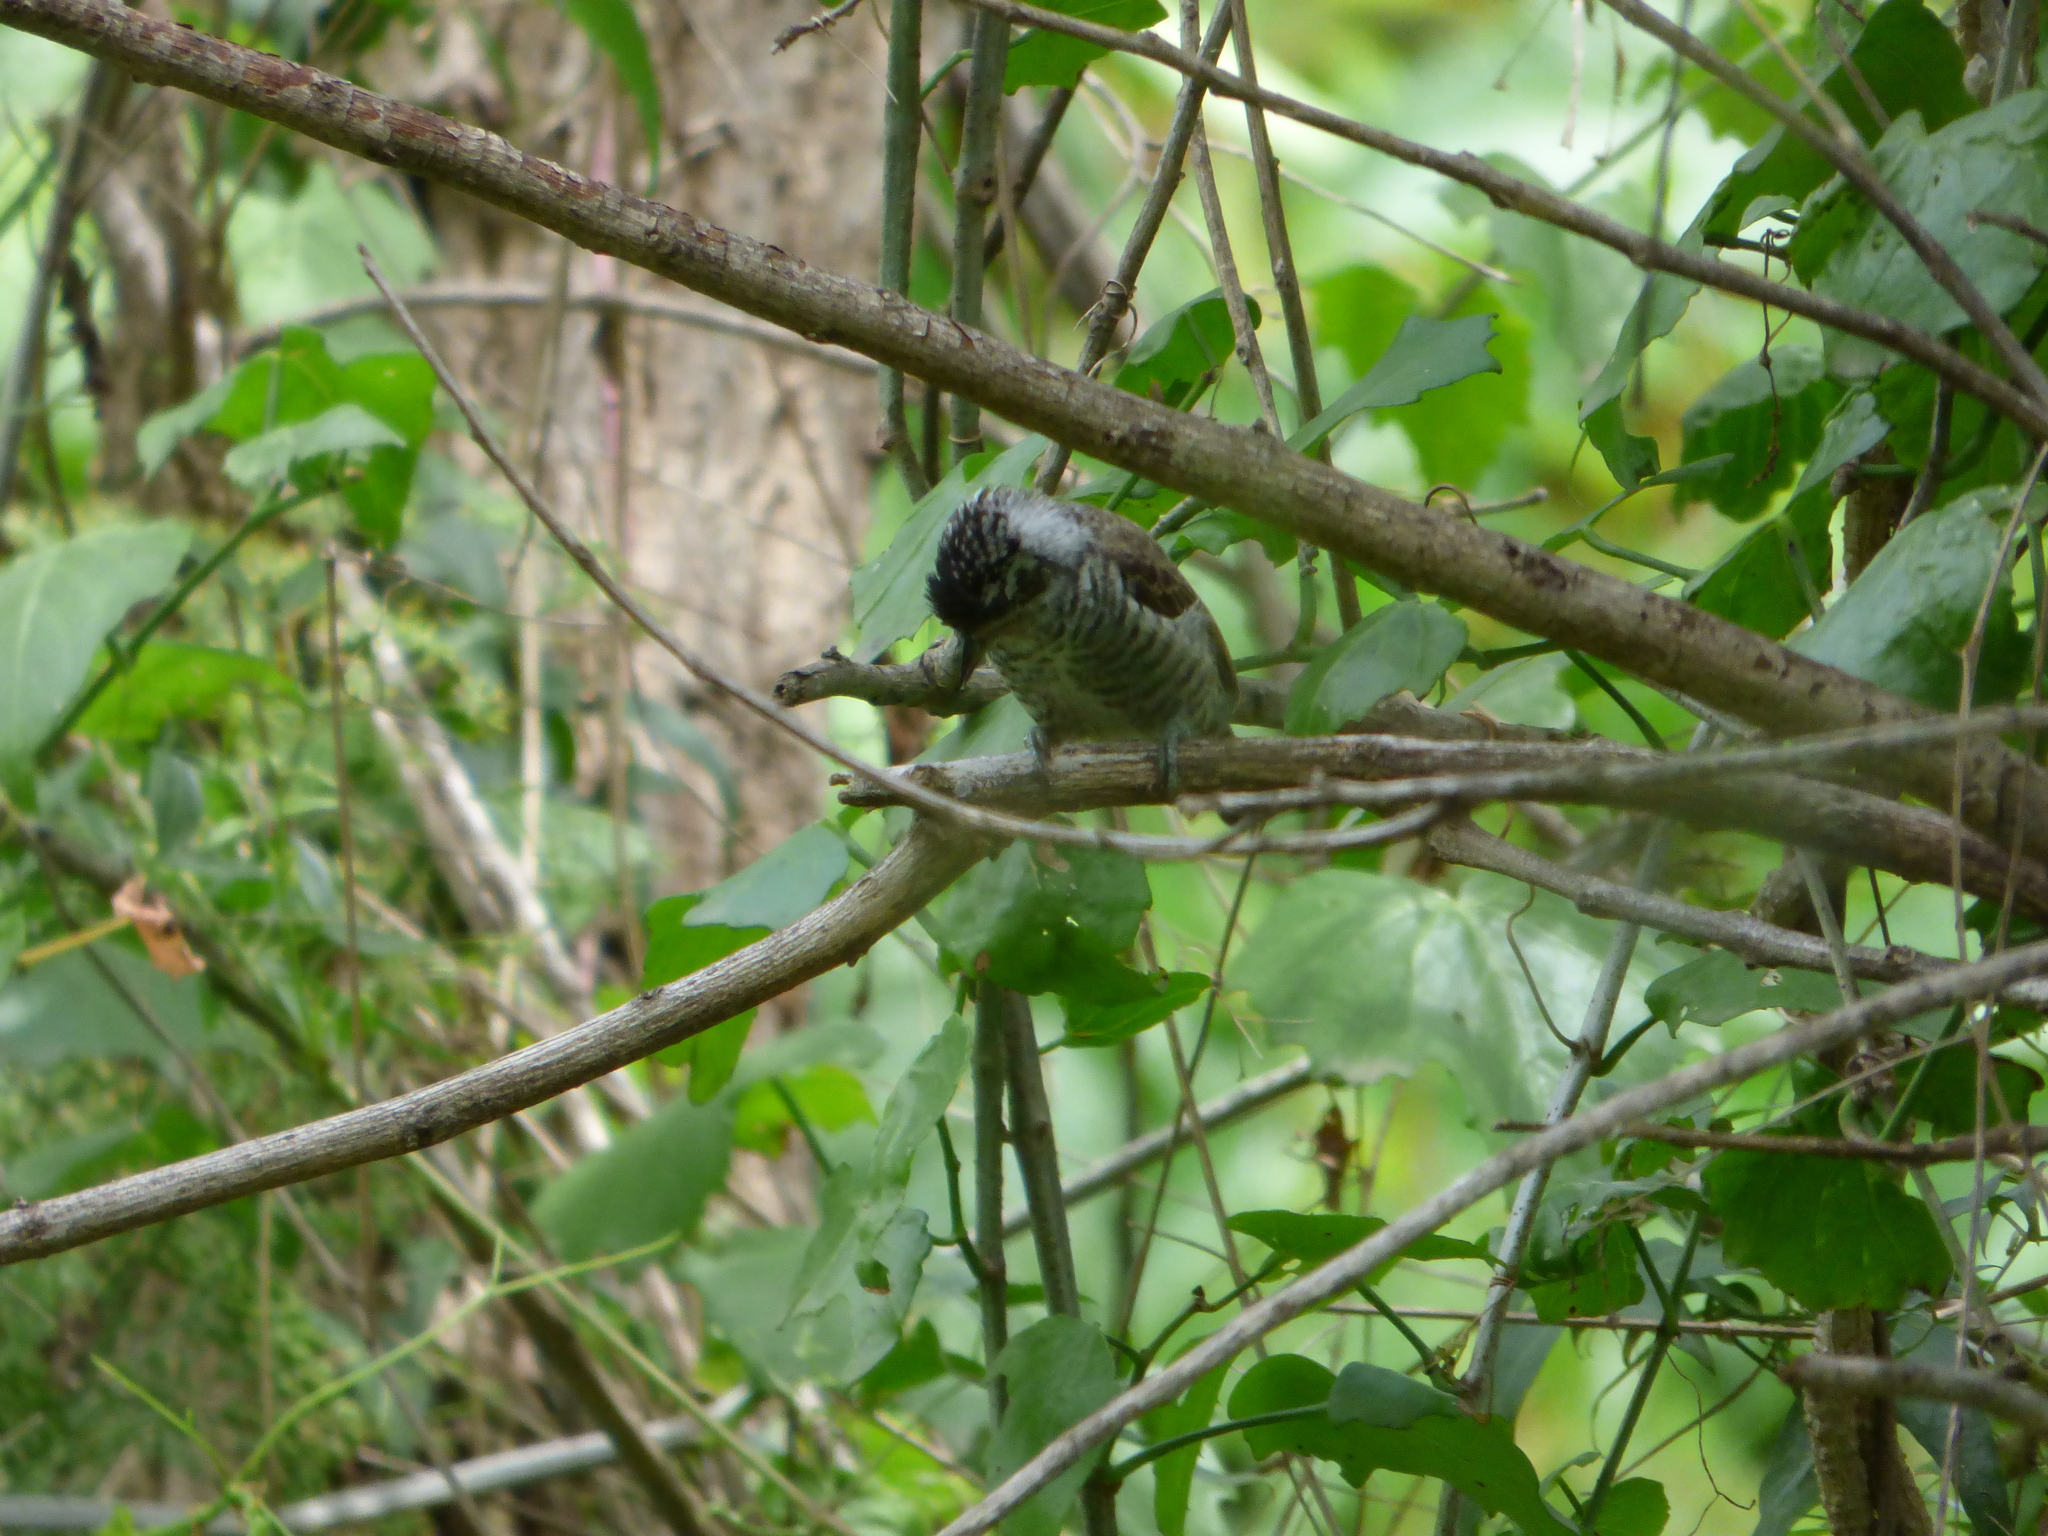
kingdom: Animalia
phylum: Chordata
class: Aves
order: Piciformes
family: Picidae
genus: Picumnus
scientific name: Picumnus cirratus
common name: White-barred piculet
